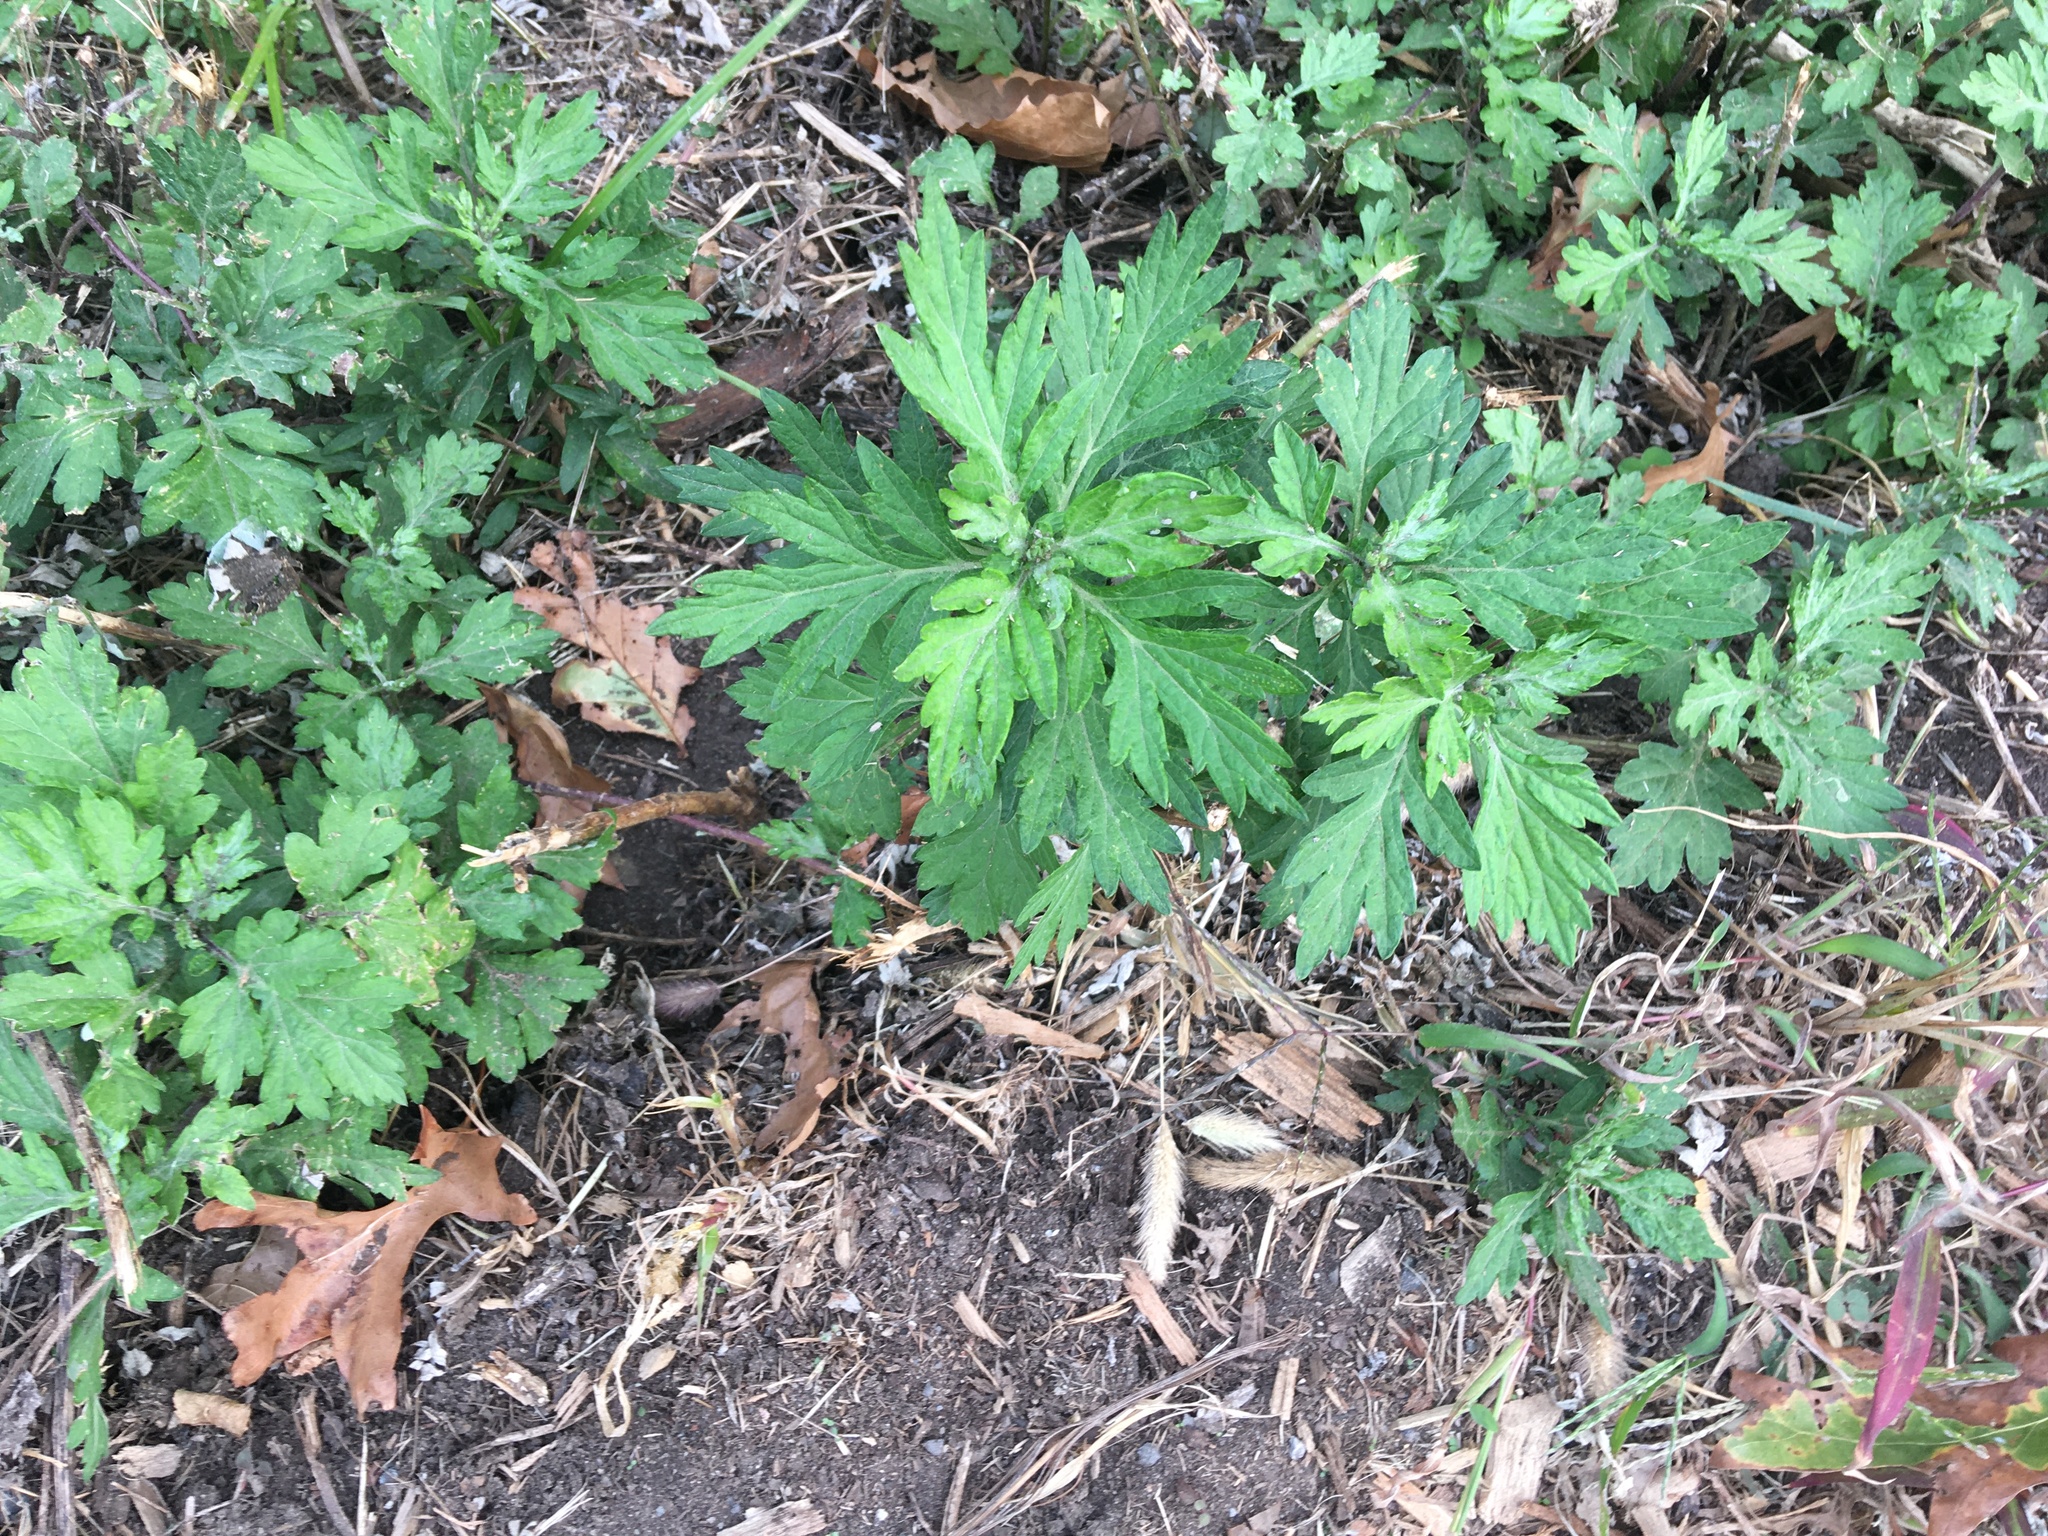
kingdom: Plantae
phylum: Tracheophyta
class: Magnoliopsida
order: Asterales
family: Asteraceae
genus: Artemisia
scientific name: Artemisia vulgaris
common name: Mugwort
